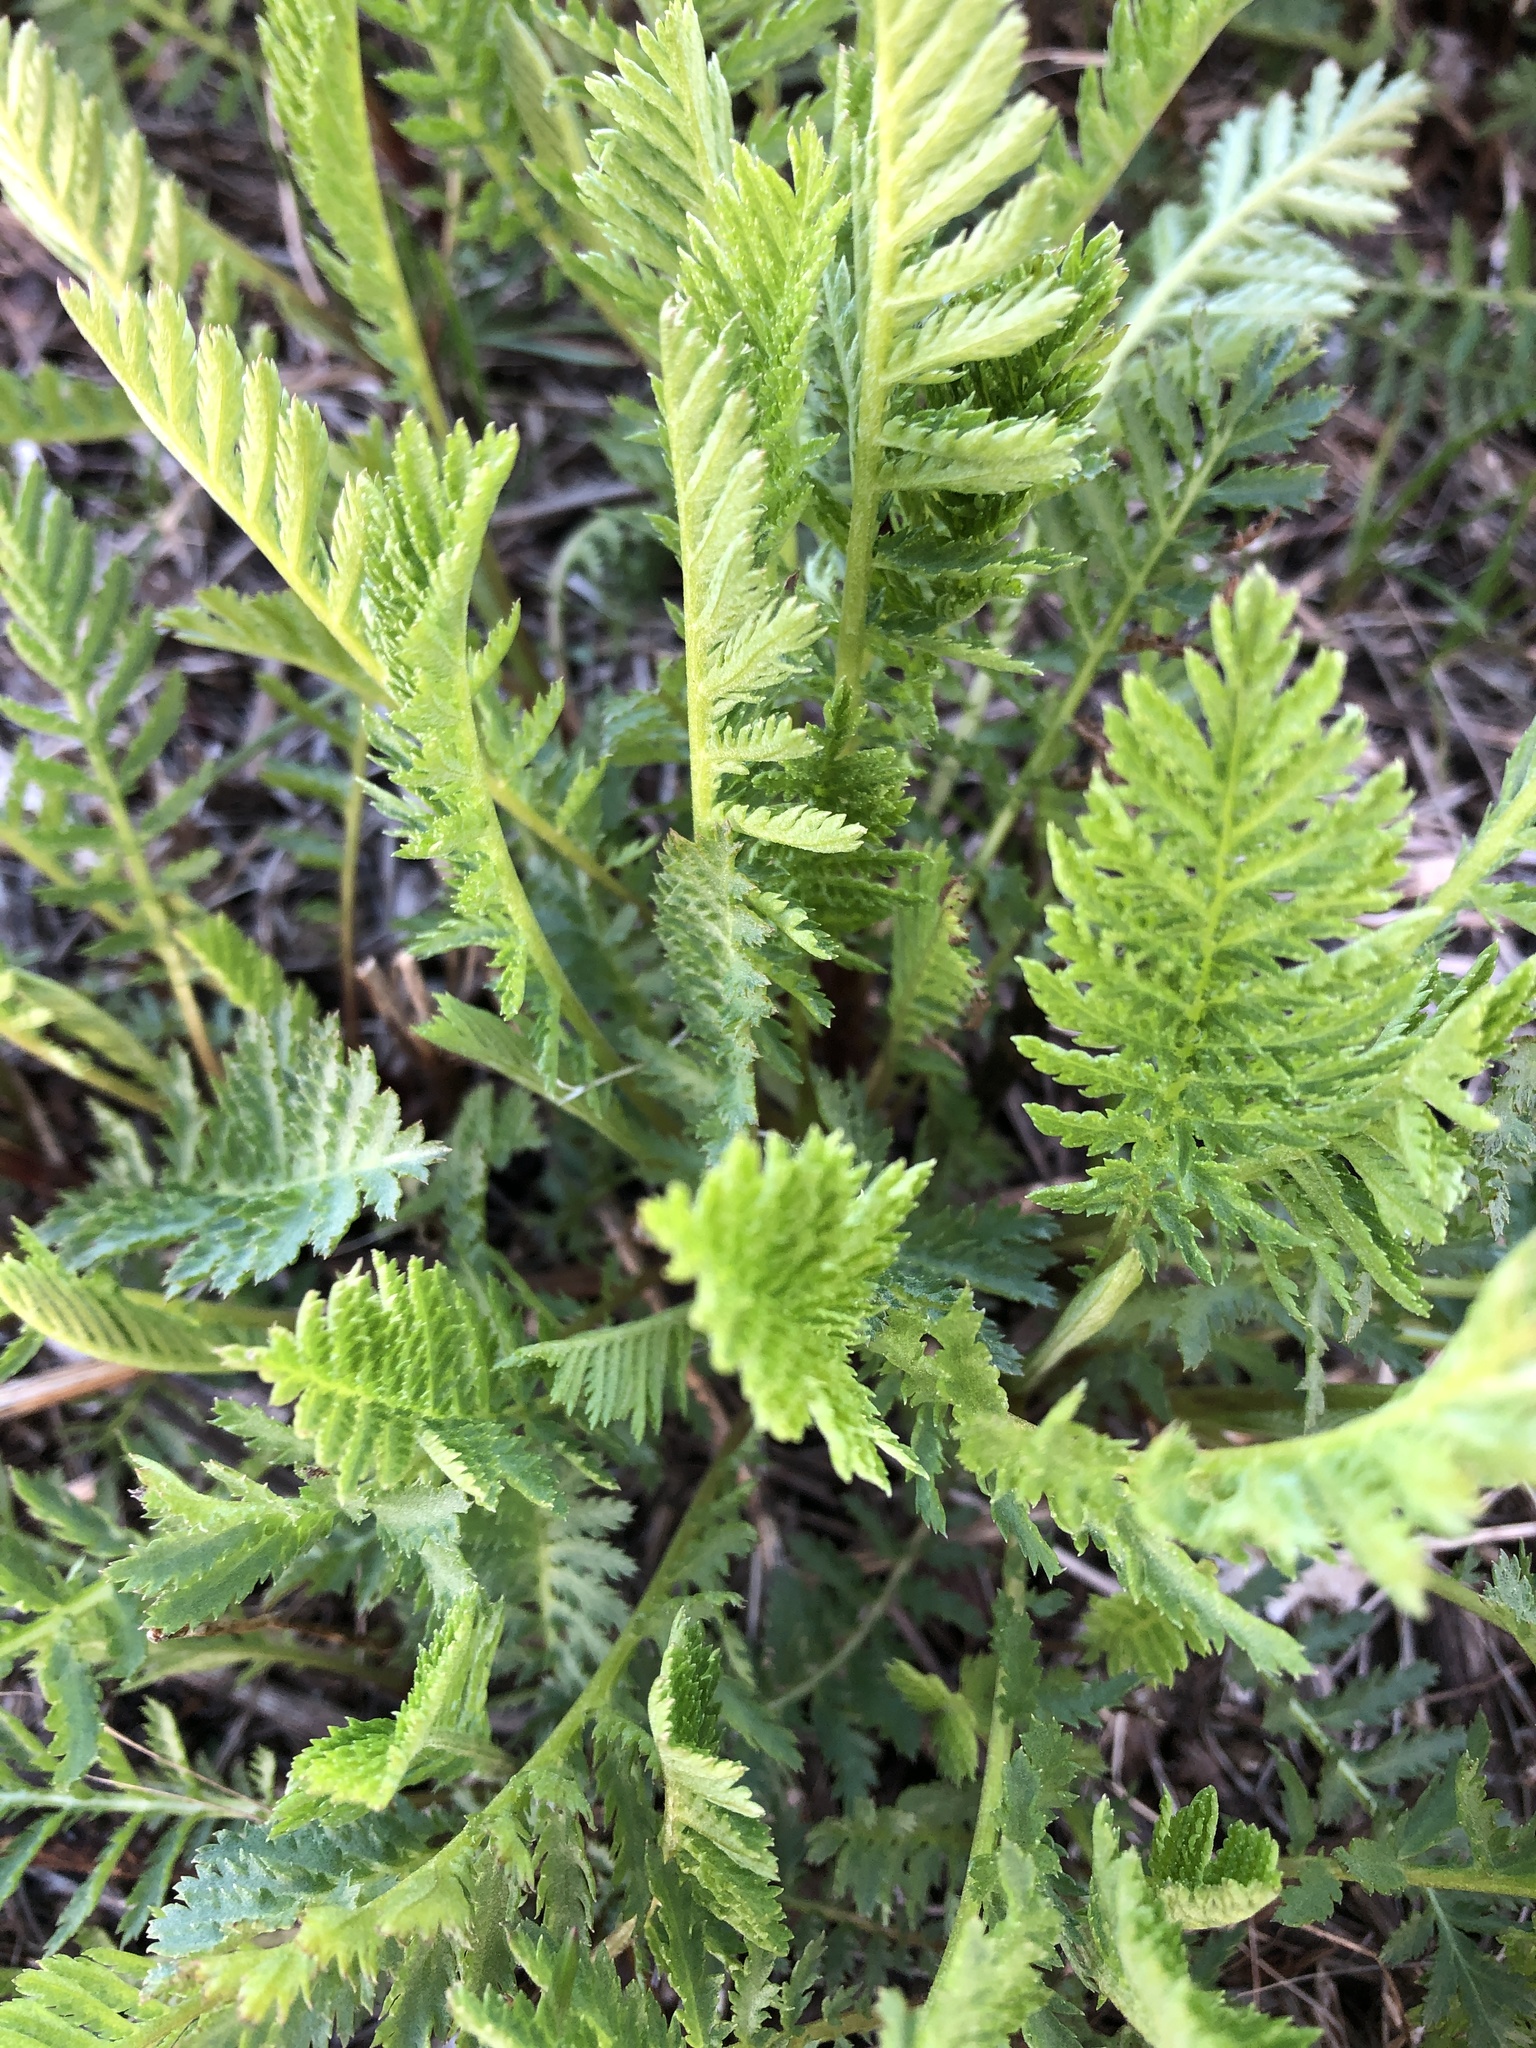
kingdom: Plantae
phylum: Tracheophyta
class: Magnoliopsida
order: Asterales
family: Asteraceae
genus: Tanacetum
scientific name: Tanacetum vulgare
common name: Common tansy
